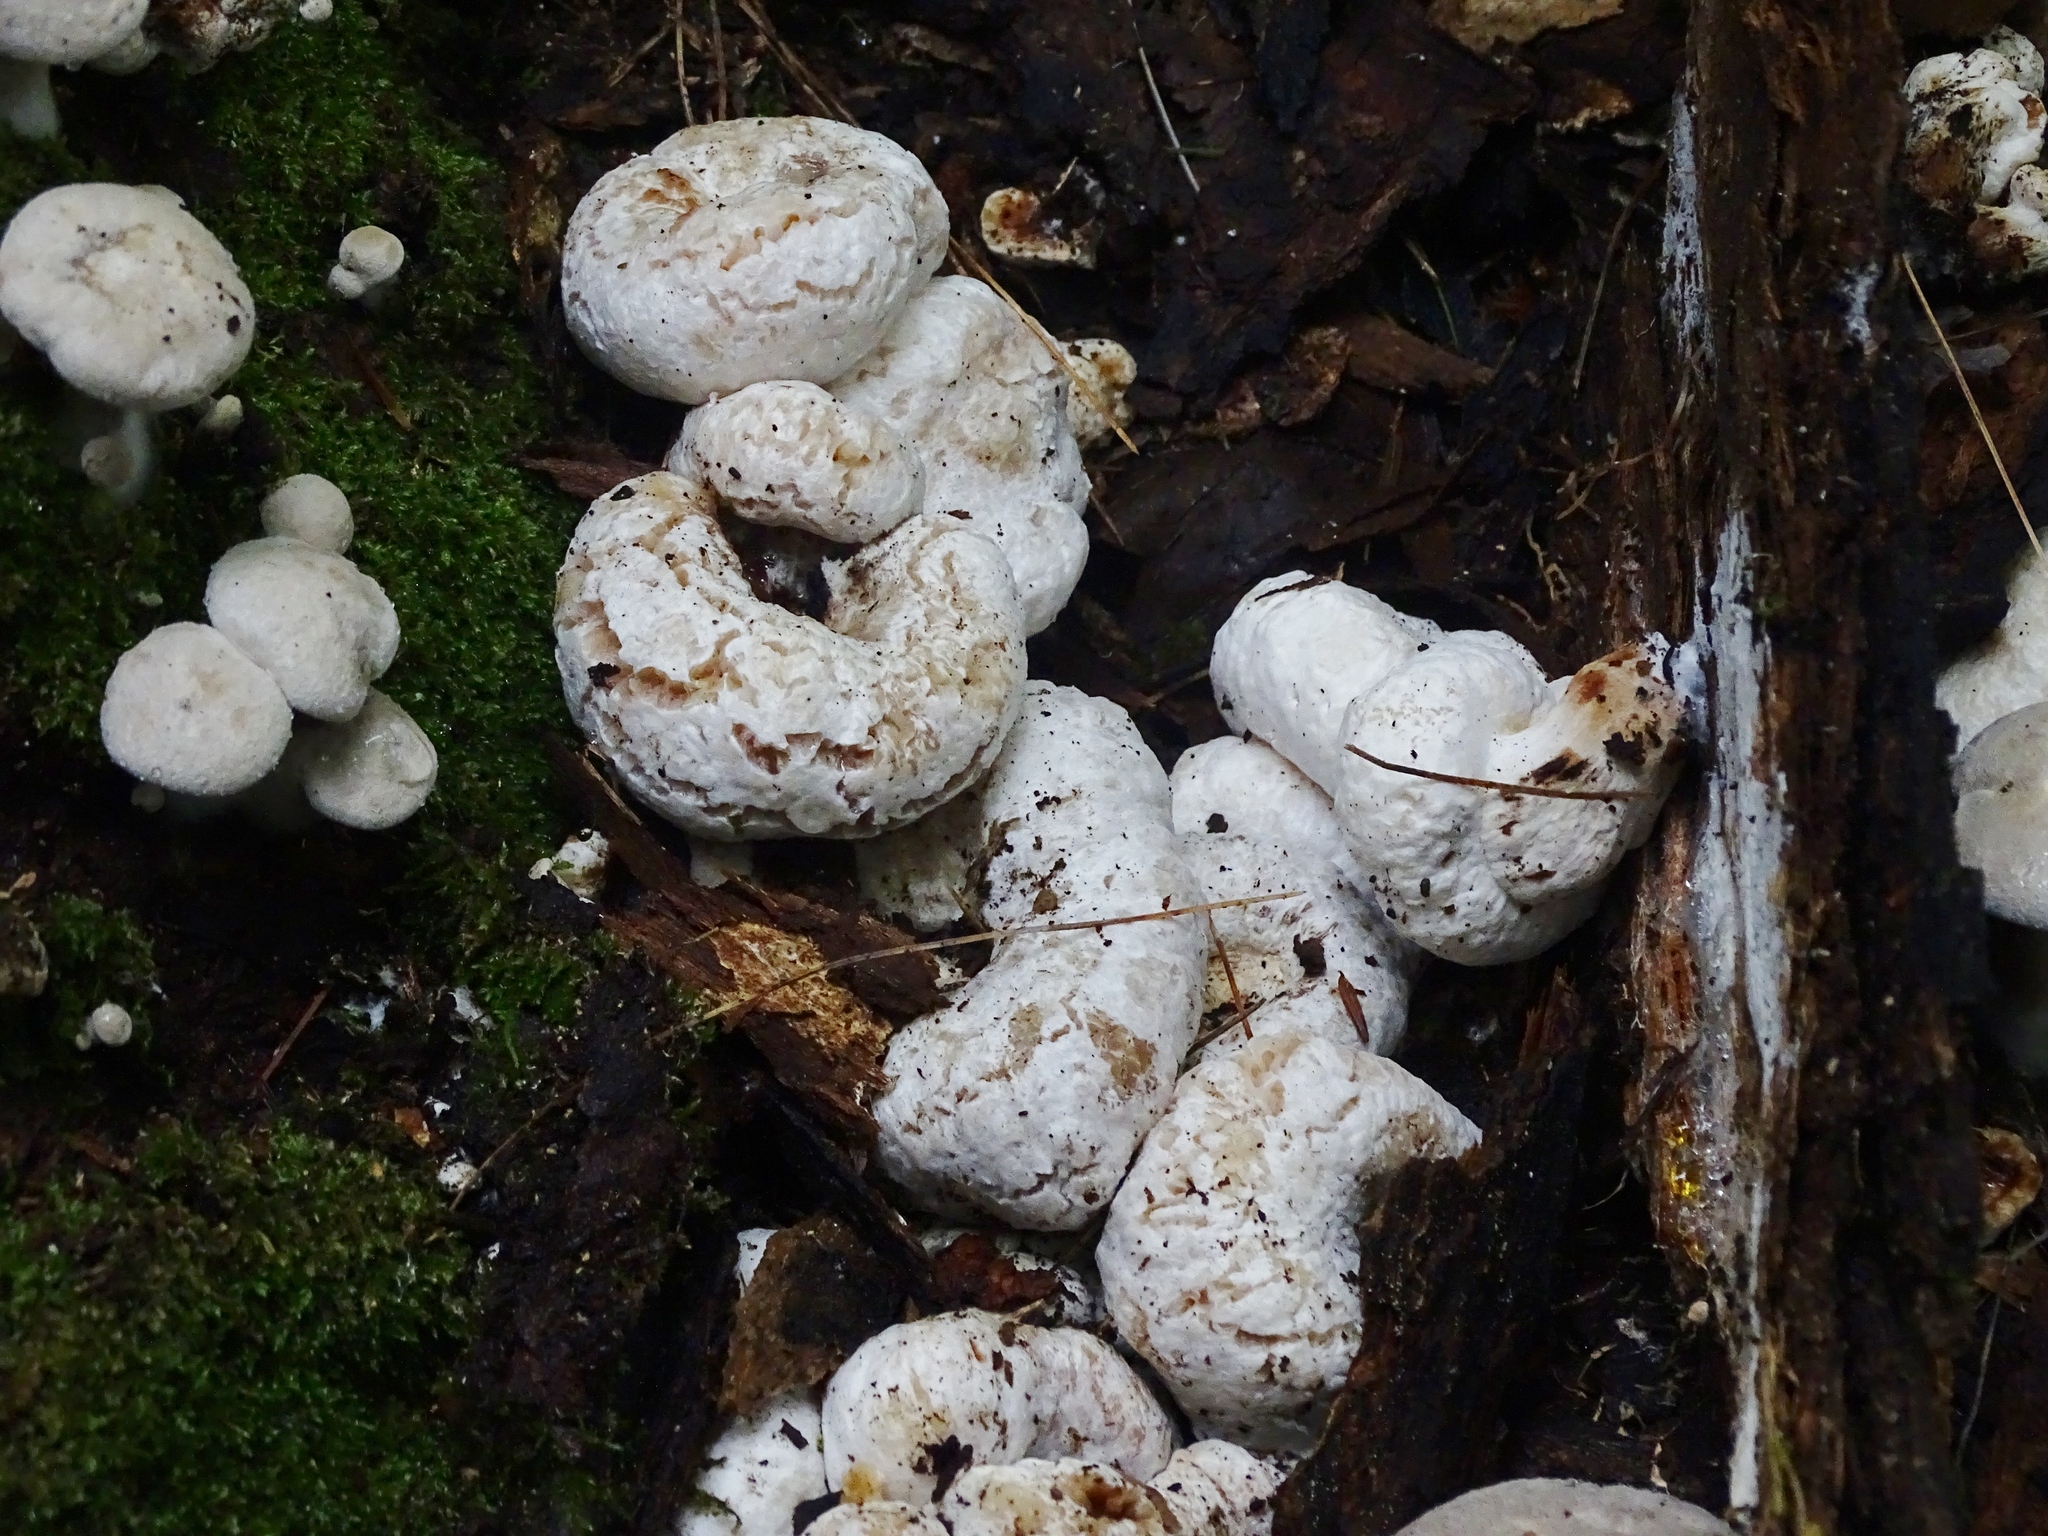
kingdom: Fungi
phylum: Basidiomycota
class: Agaricomycetes
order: Agaricales
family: Entolomataceae
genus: Entoloma
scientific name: Entoloma abortivum
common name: Aborted entoloma
